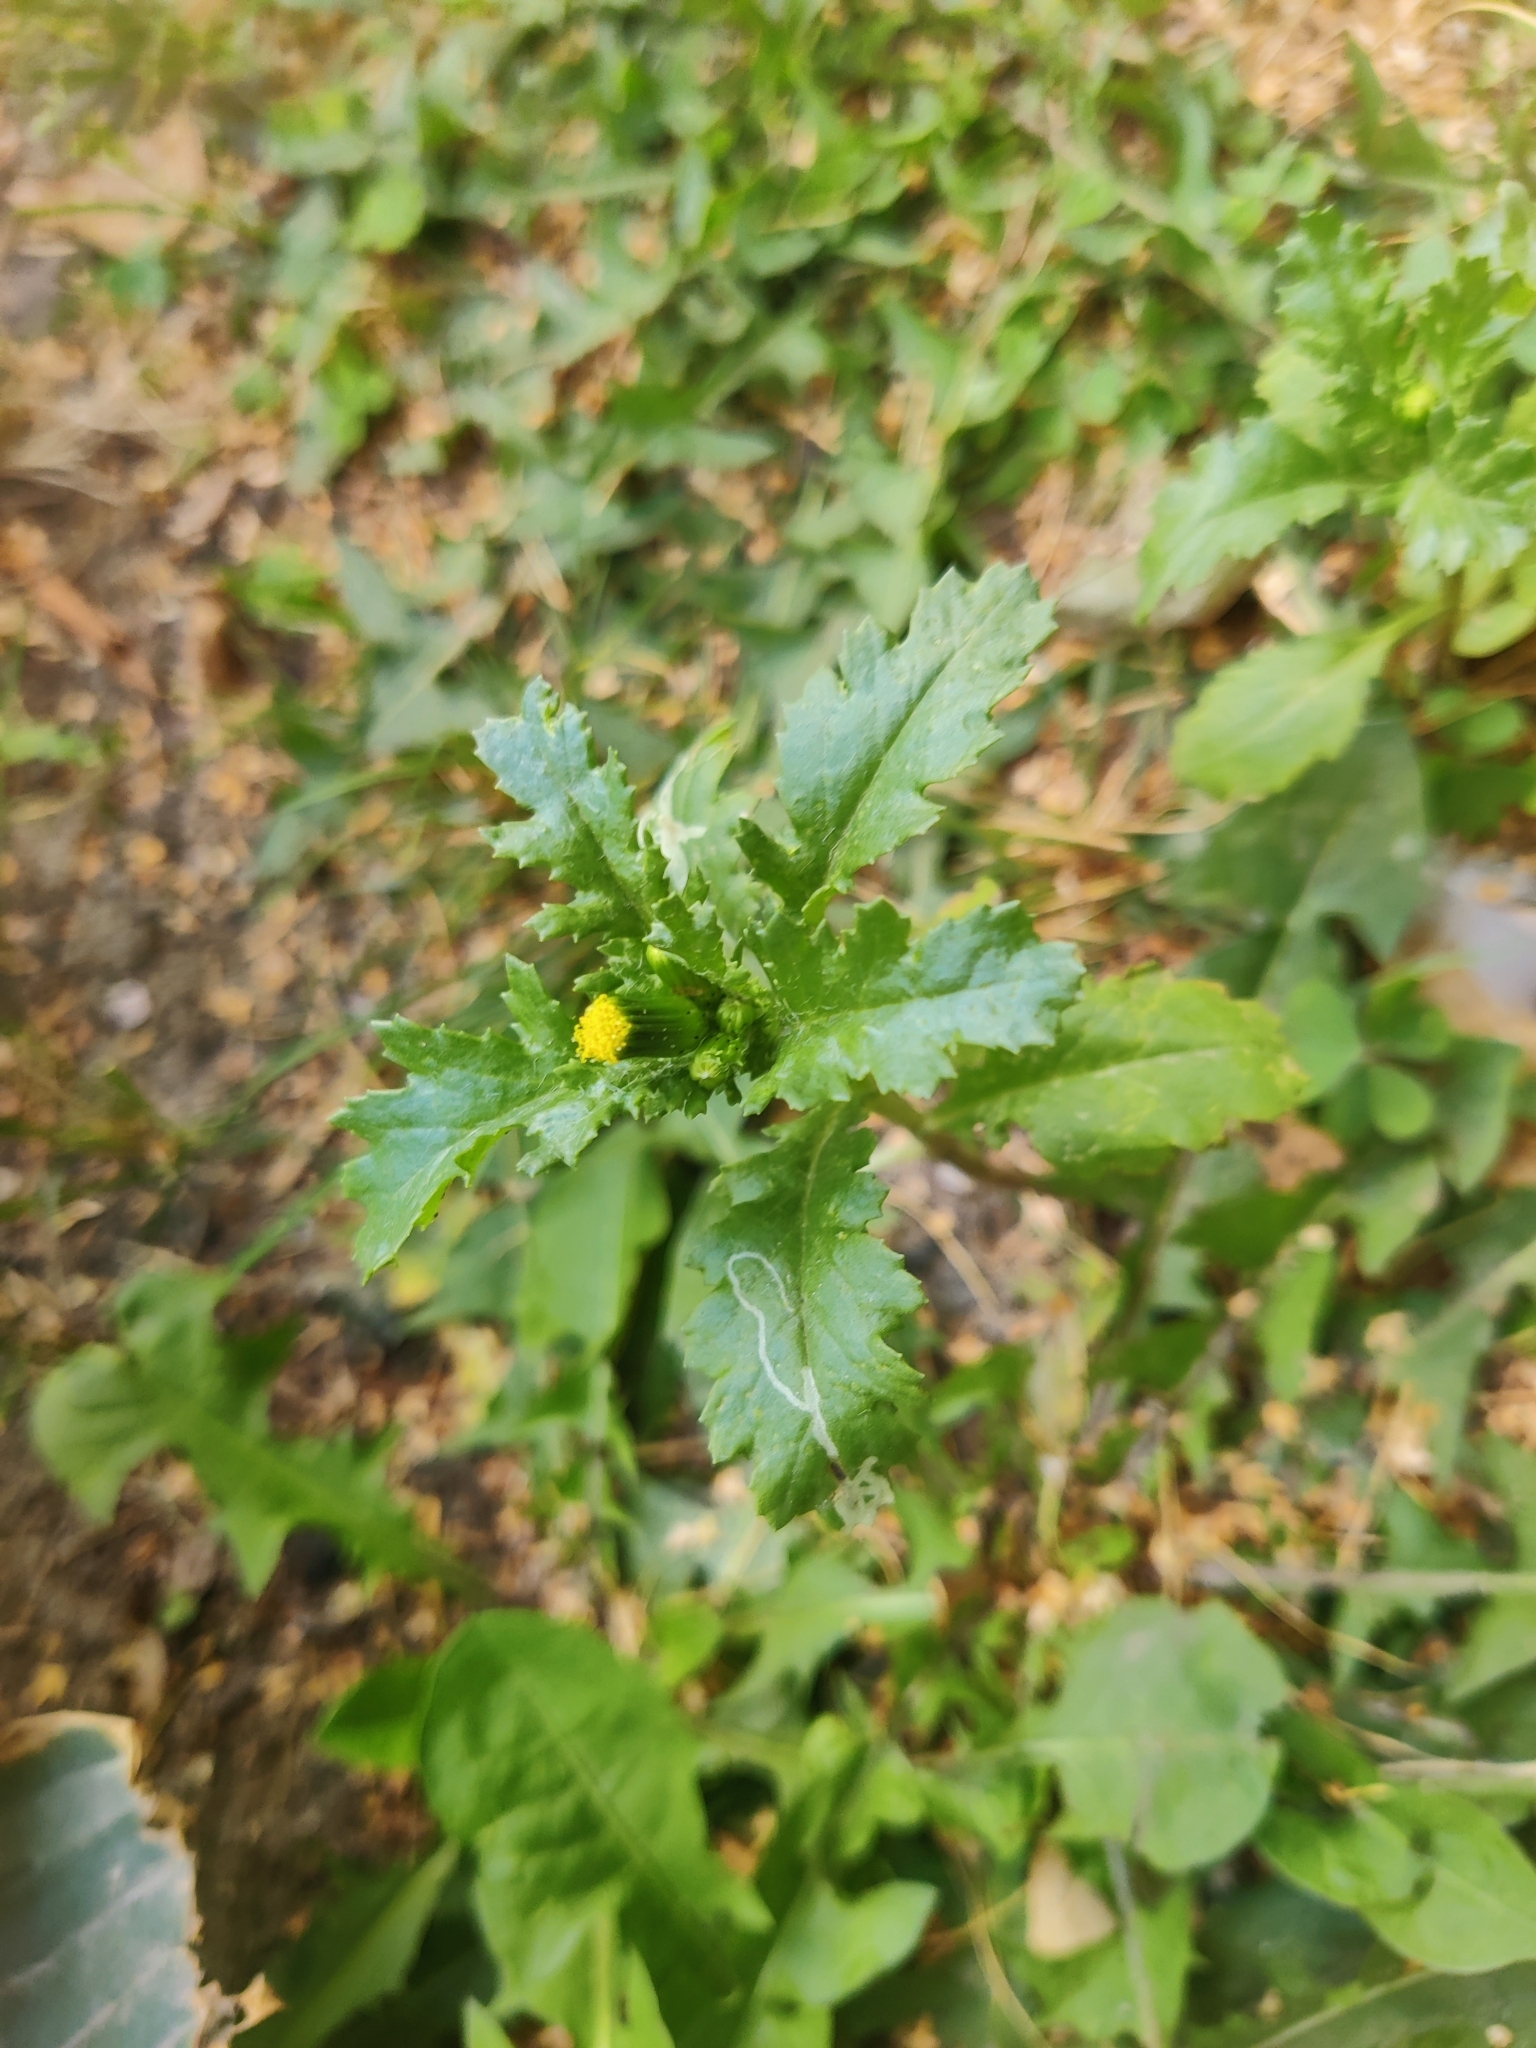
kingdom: Plantae
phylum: Tracheophyta
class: Magnoliopsida
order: Asterales
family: Asteraceae
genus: Senecio
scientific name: Senecio vulgaris
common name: Old-man-in-the-spring
